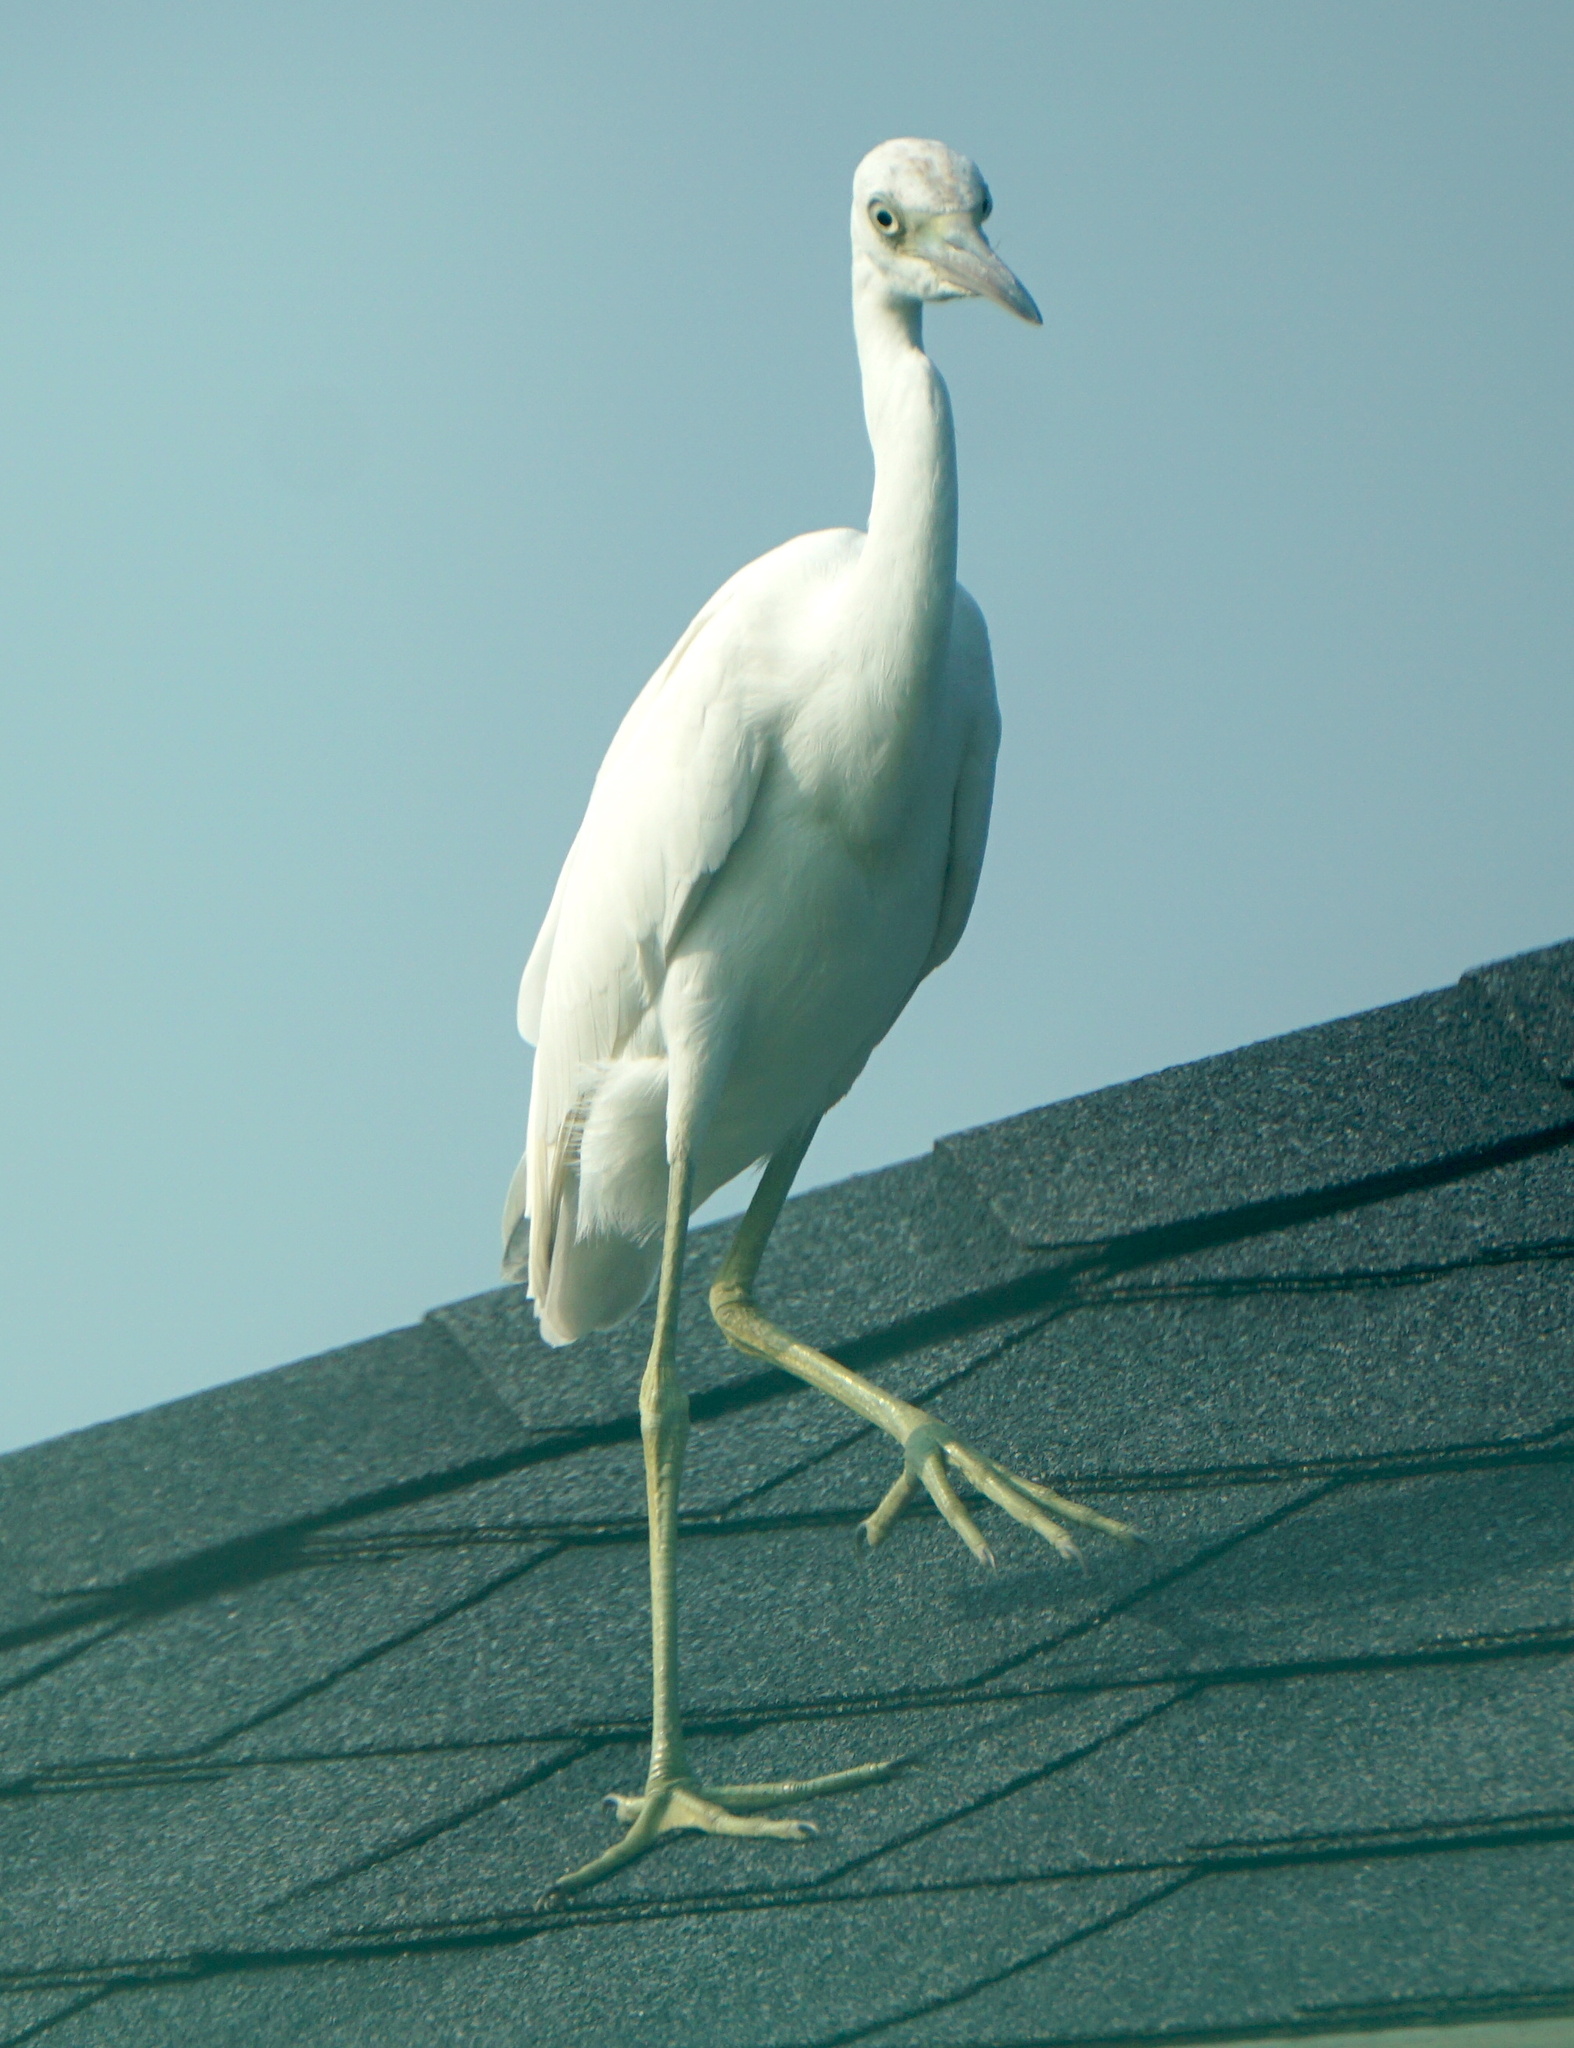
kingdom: Animalia
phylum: Chordata
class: Aves
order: Pelecaniformes
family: Ardeidae
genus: Egretta
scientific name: Egretta caerulea
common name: Little blue heron
